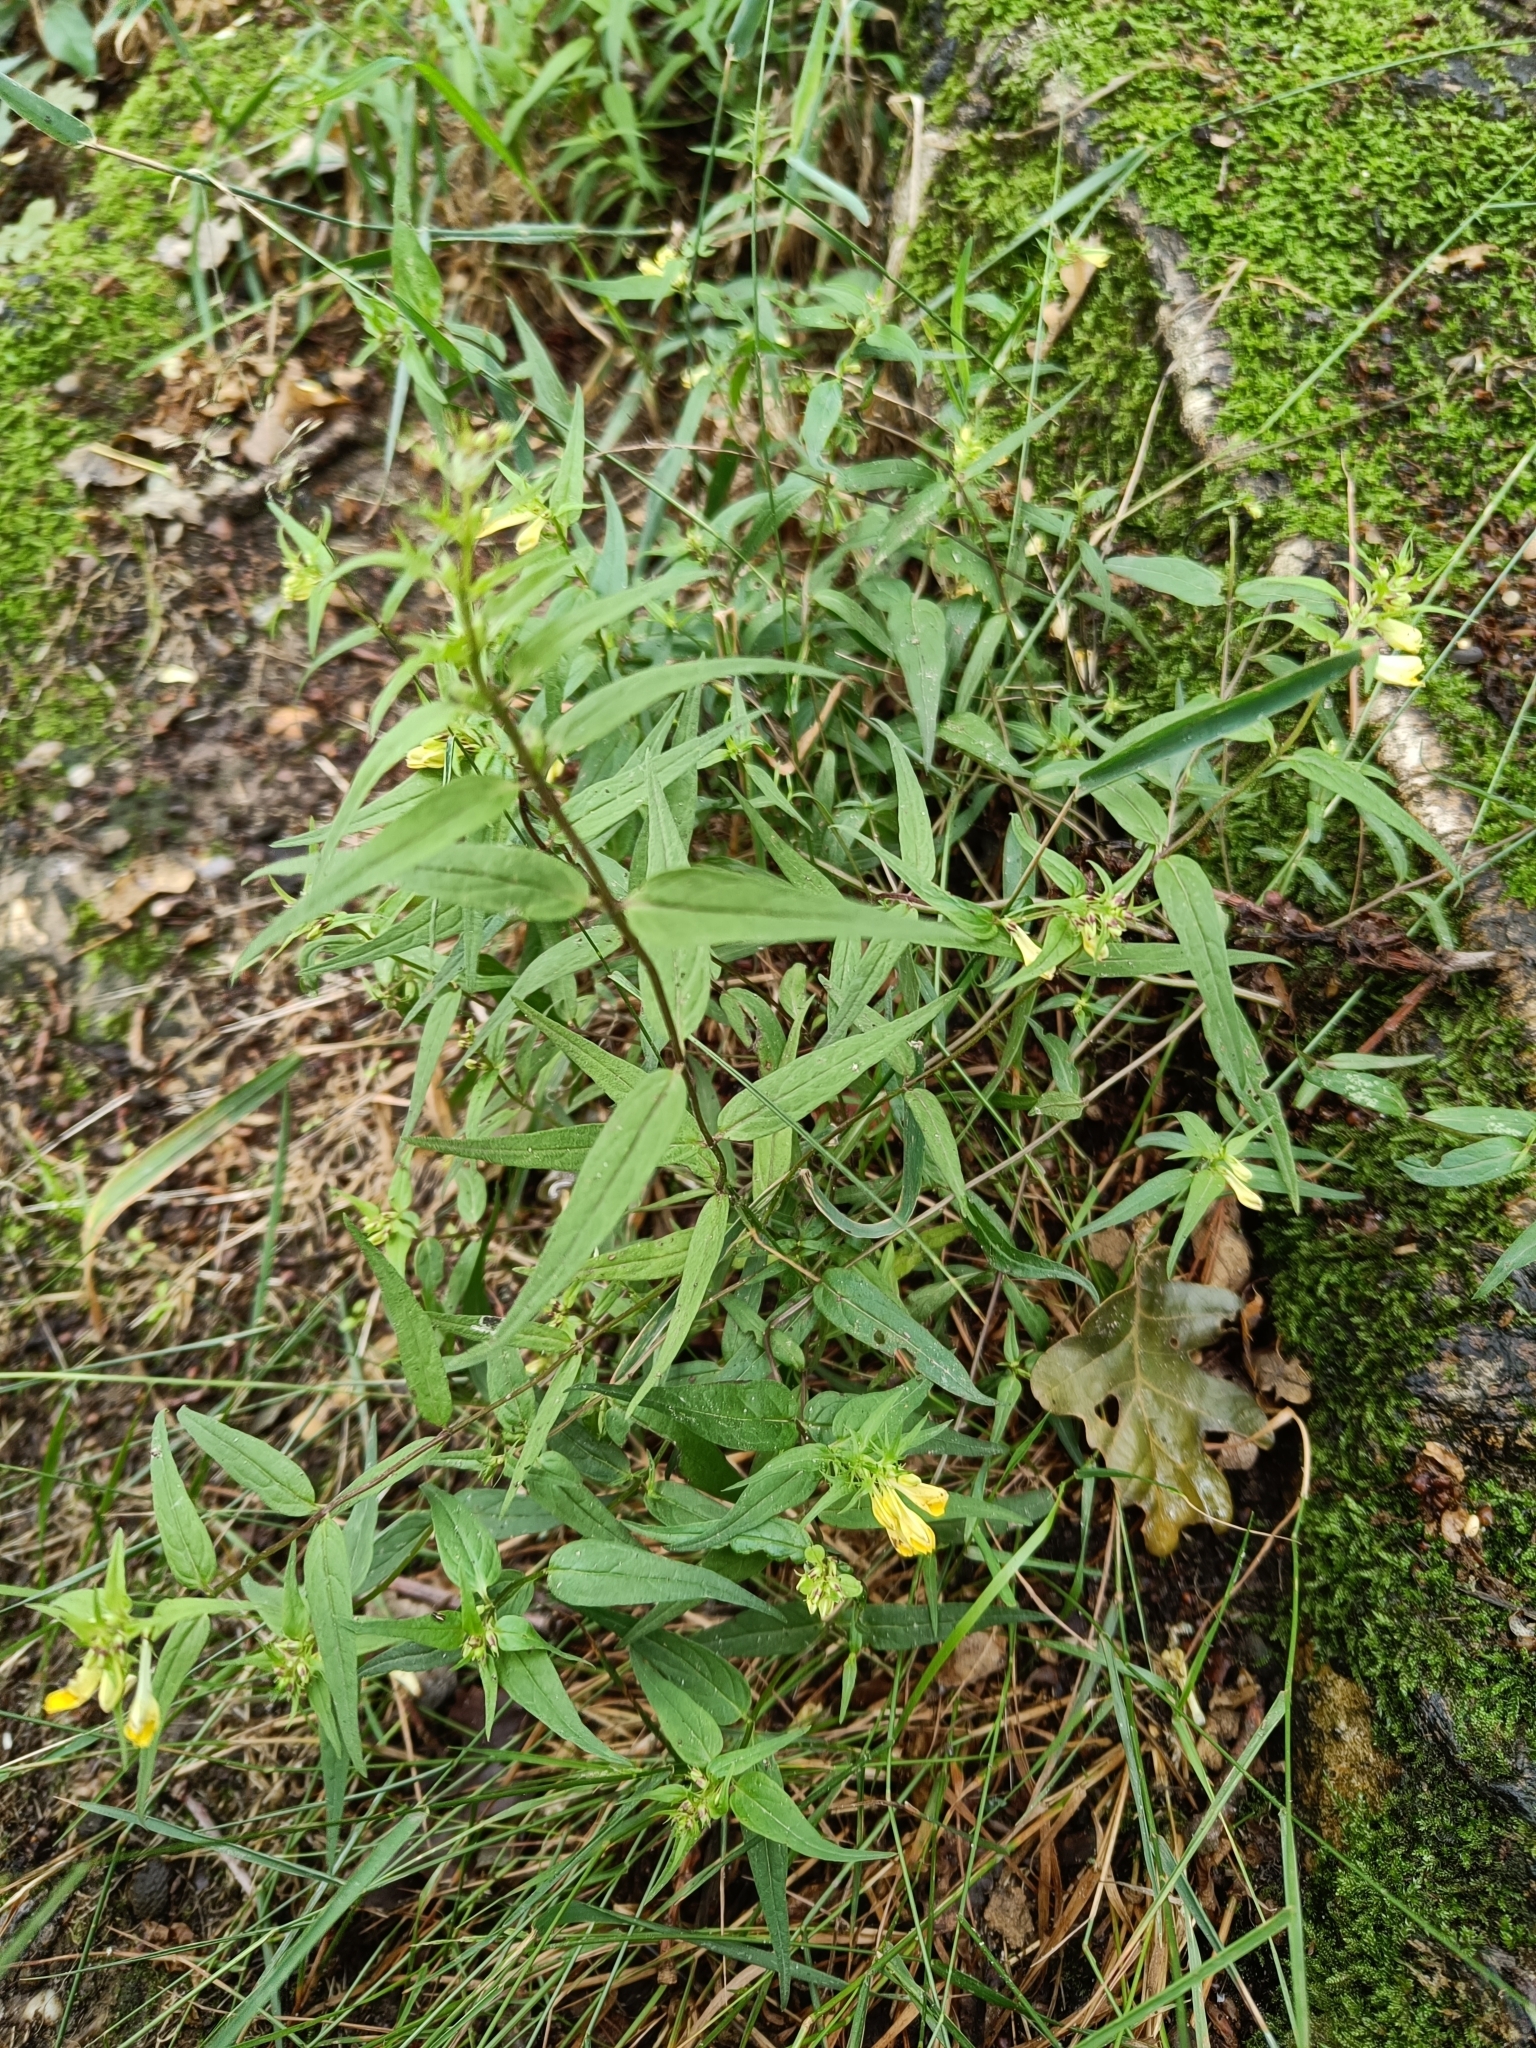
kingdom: Plantae
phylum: Tracheophyta
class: Magnoliopsida
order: Lamiales
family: Orobanchaceae
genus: Melampyrum
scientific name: Melampyrum pratense
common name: Common cow-wheat
